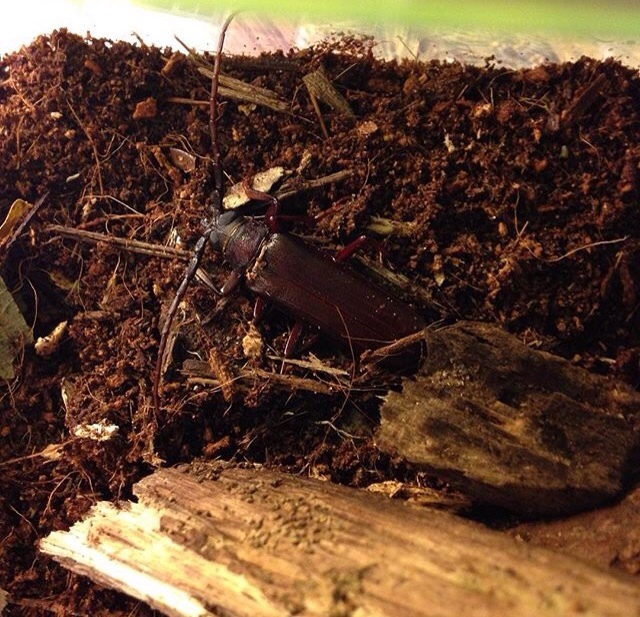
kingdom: Animalia
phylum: Arthropoda
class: Insecta
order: Coleoptera
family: Cerambycidae
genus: Orthosoma
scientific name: Orthosoma brunneum
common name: Brown prionid beetle
